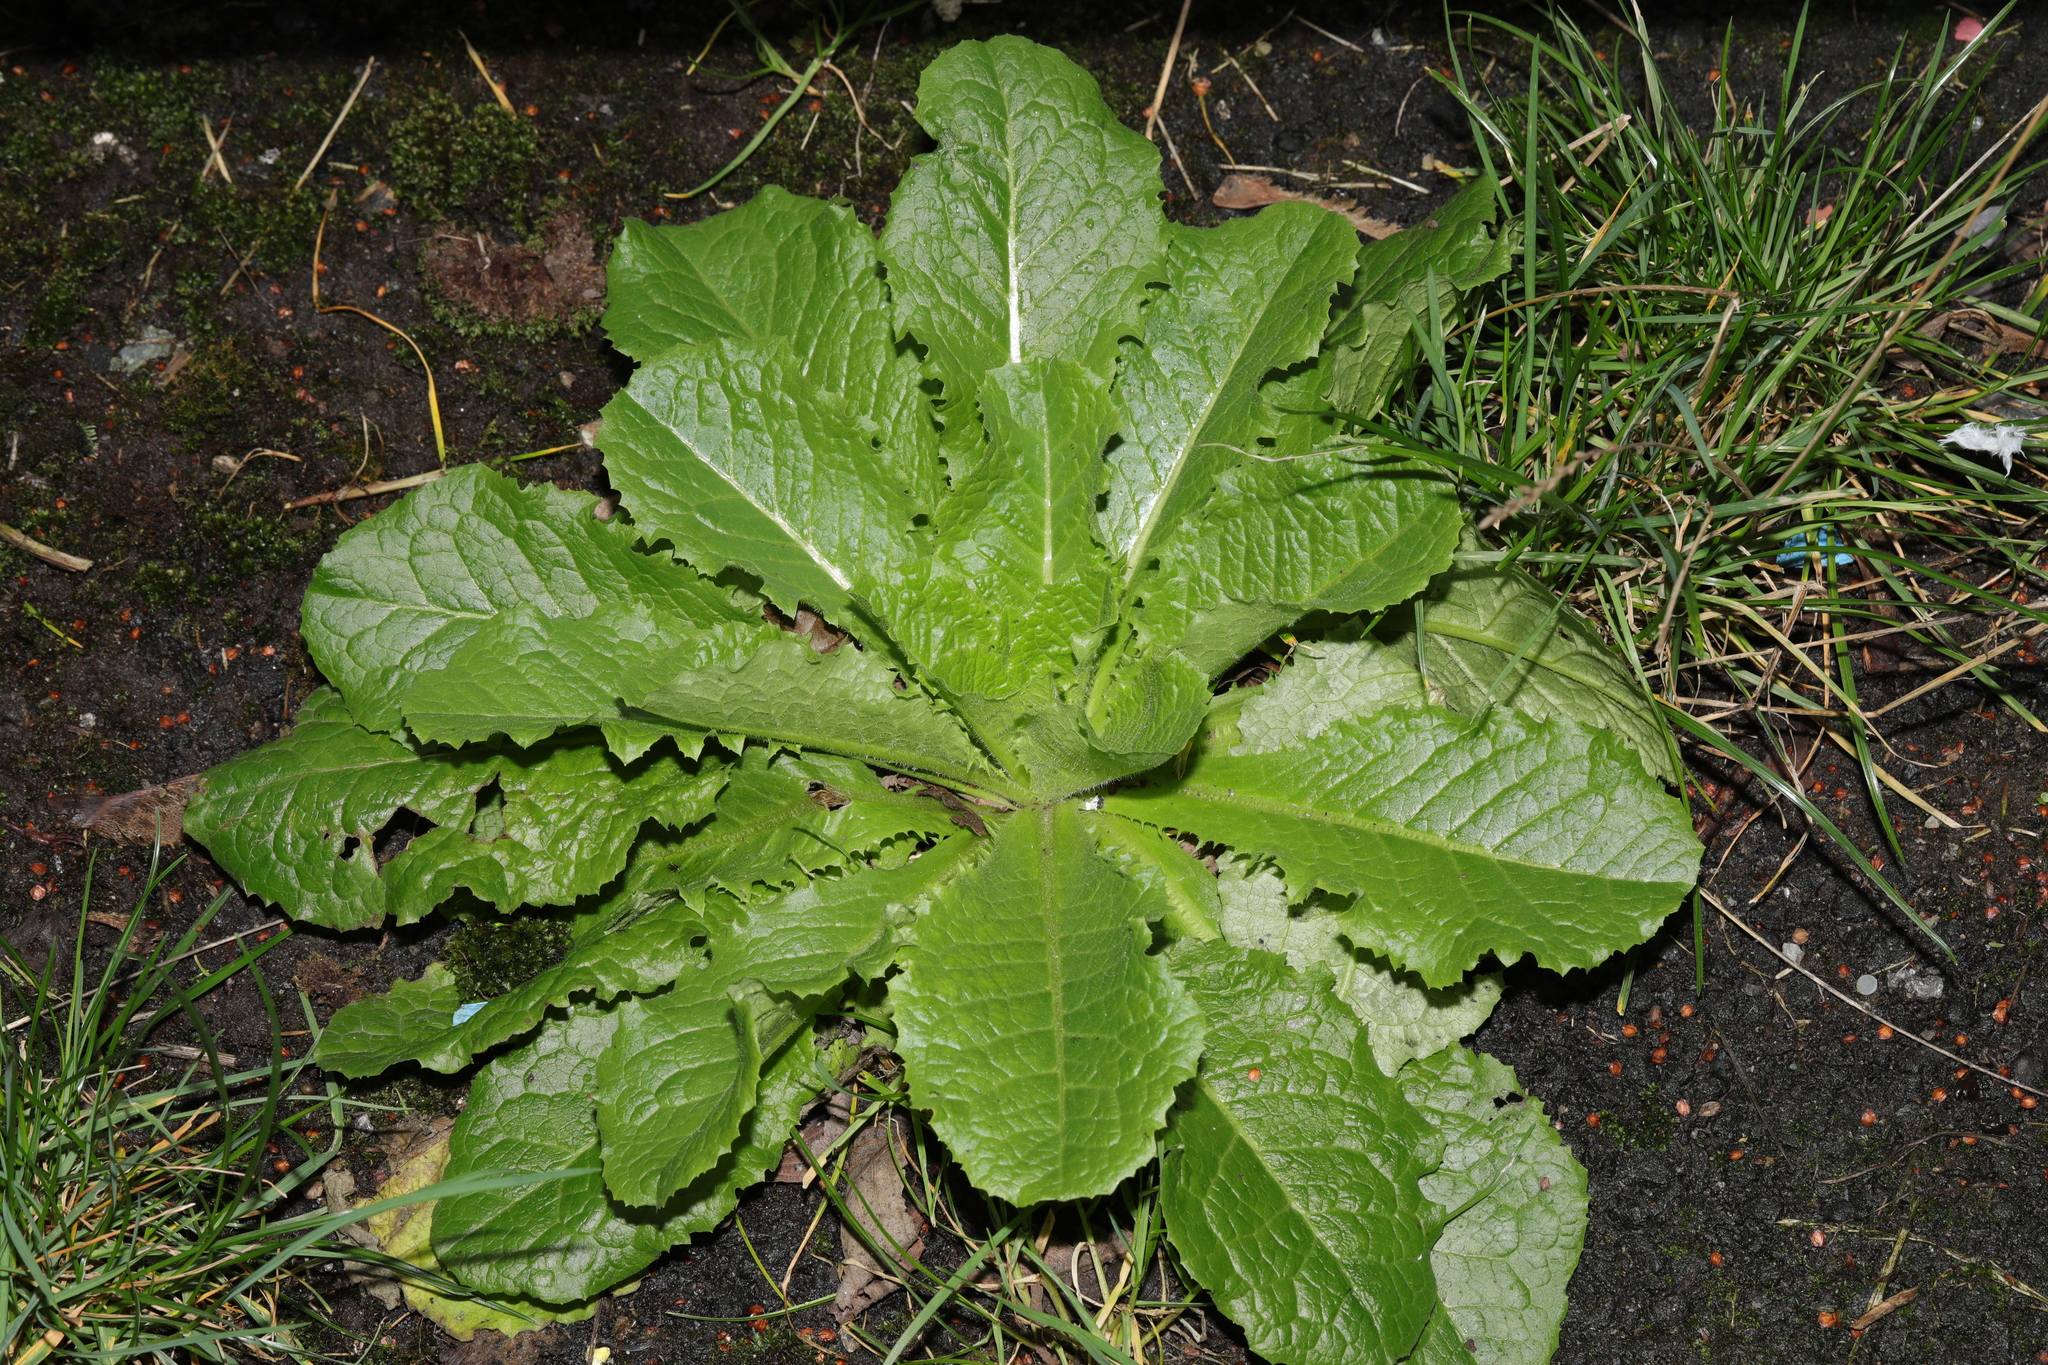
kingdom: Plantae
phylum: Tracheophyta
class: Magnoliopsida
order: Asterales
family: Asteraceae
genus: Lactuca
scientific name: Lactuca virosa
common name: Great lettuce
